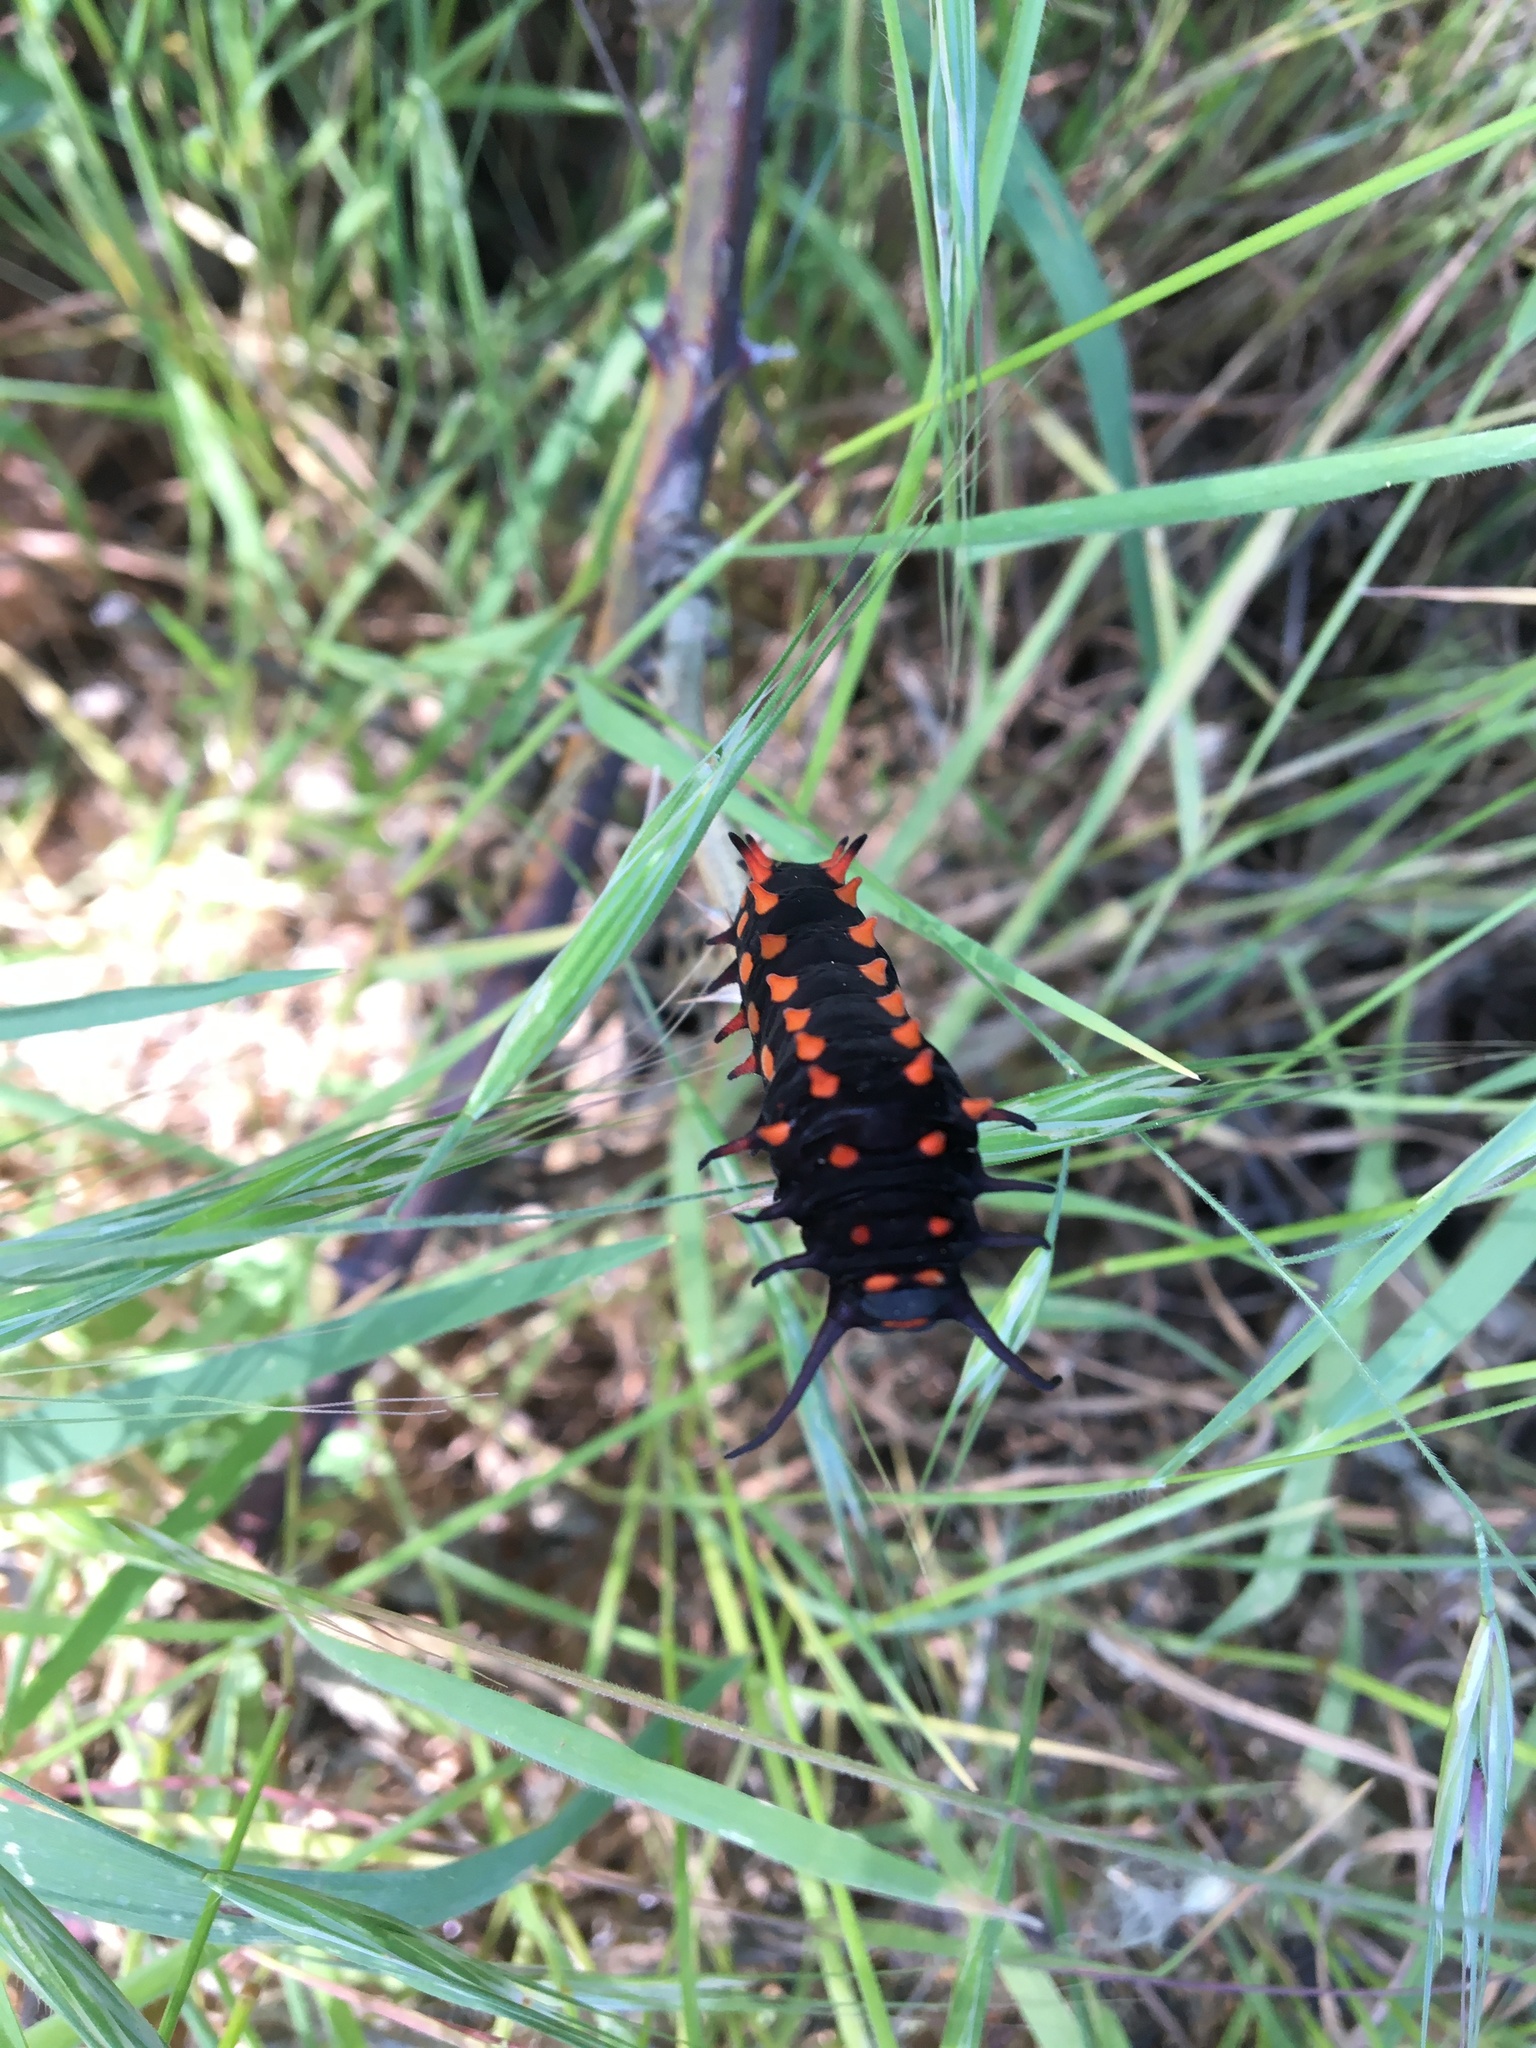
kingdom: Animalia
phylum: Arthropoda
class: Insecta
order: Lepidoptera
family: Papilionidae
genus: Battus
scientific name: Battus philenor
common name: Pipevine swallowtail
